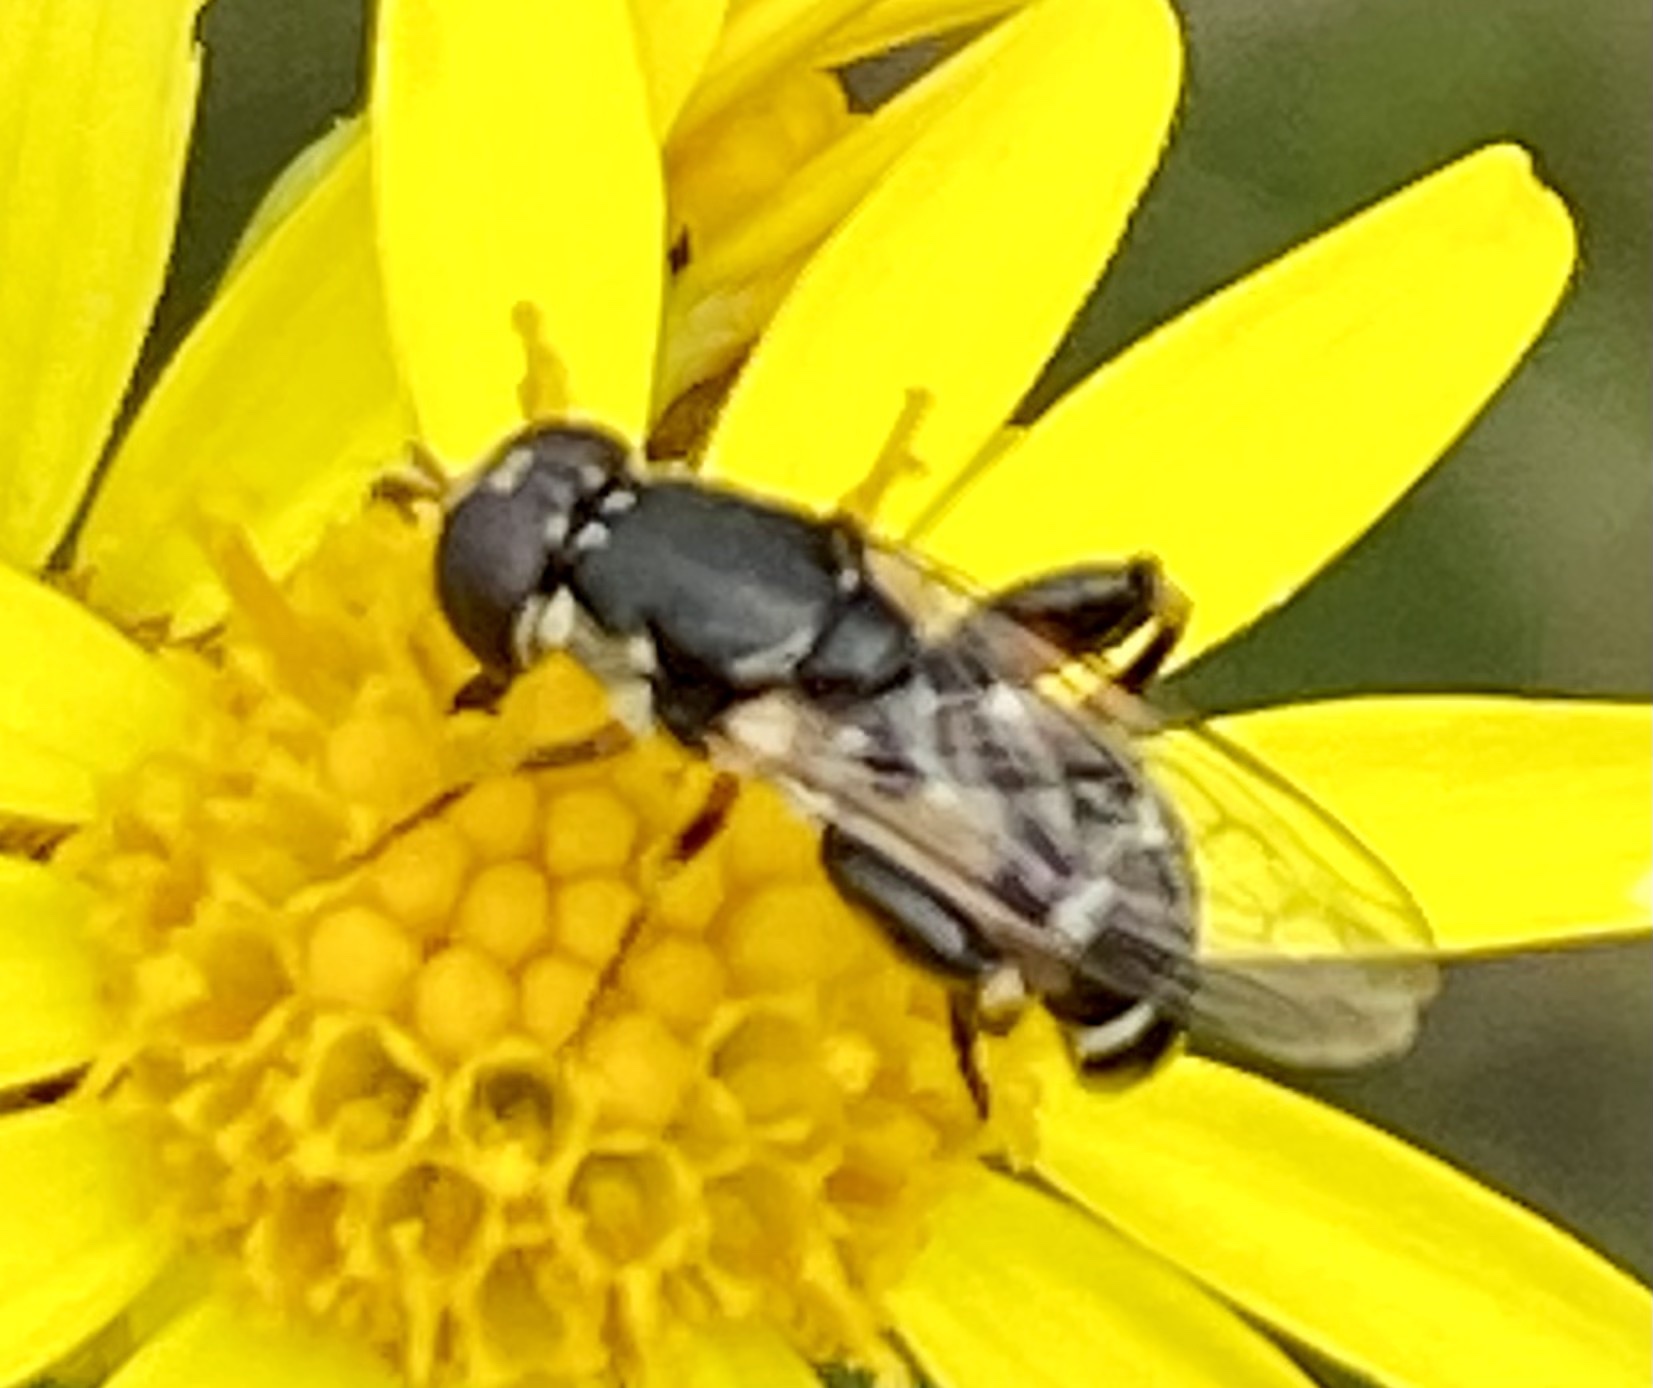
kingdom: Animalia
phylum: Arthropoda
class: Insecta
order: Diptera
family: Syrphidae
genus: Syritta
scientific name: Syritta pipiens
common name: Hover fly
